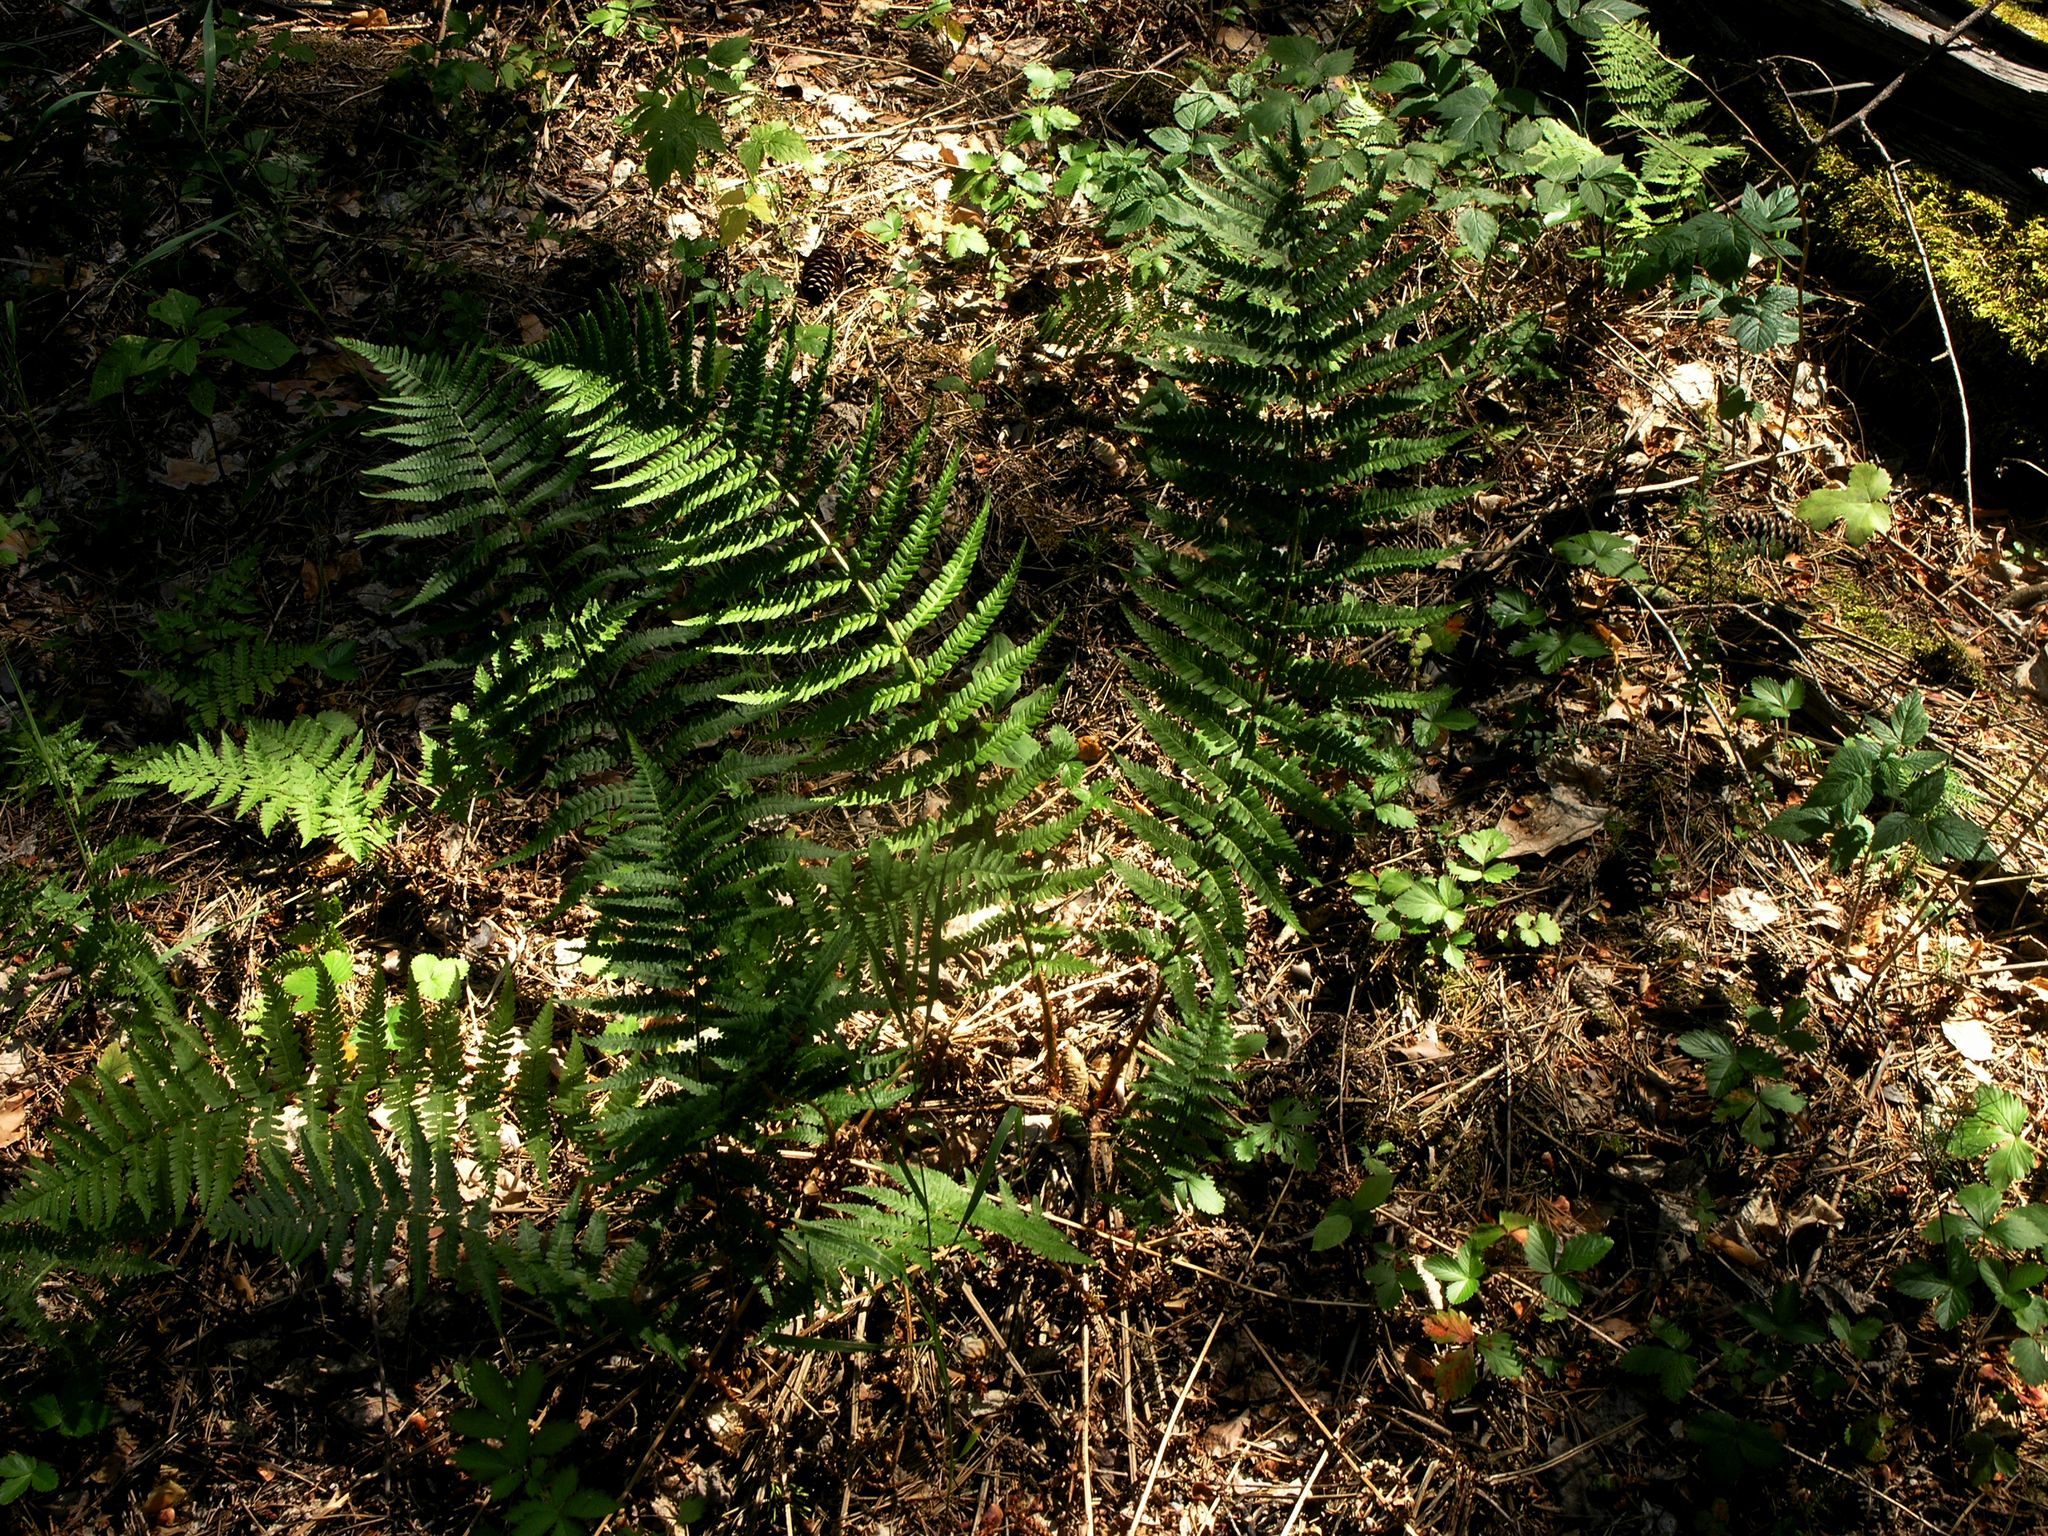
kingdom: Plantae
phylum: Tracheophyta
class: Polypodiopsida
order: Polypodiales
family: Dryopteridaceae
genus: Dryopteris
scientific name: Dryopteris filix-mas
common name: Male fern
